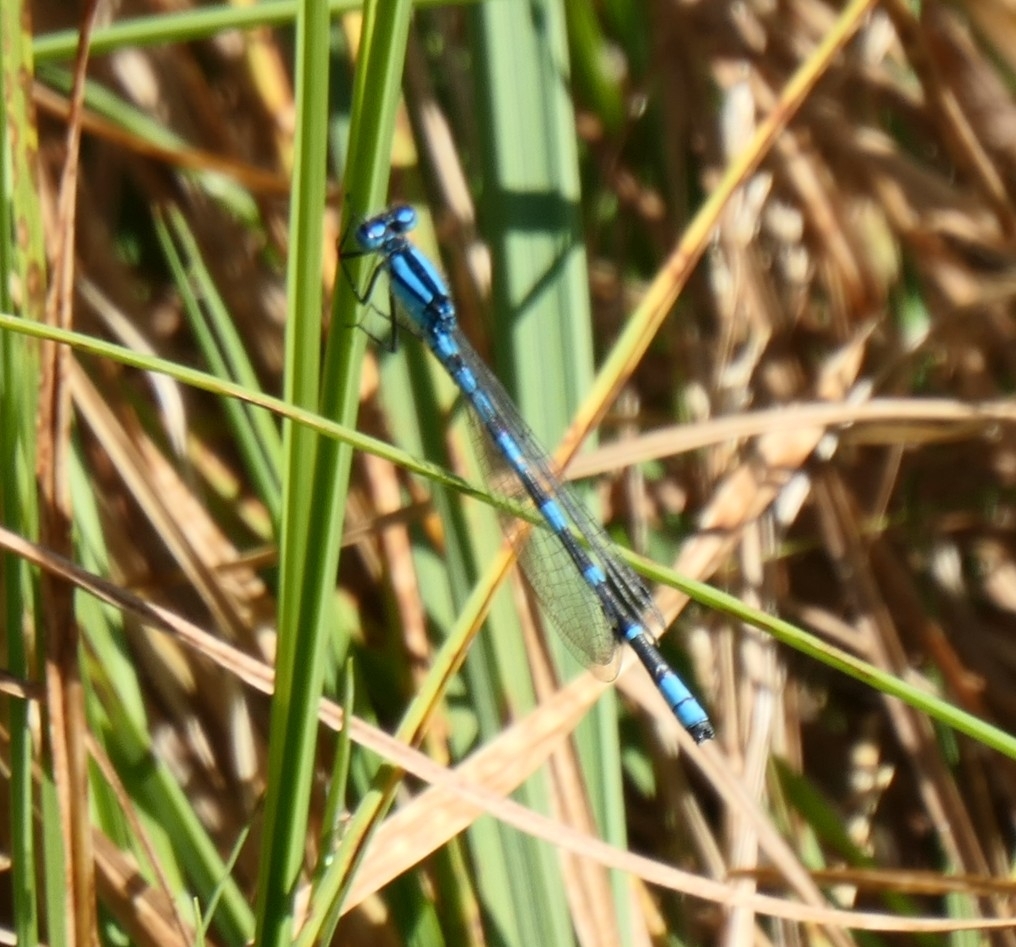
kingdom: Animalia
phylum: Arthropoda
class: Insecta
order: Odonata
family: Coenagrionidae
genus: Enallagma
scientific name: Enallagma cyathigerum
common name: Common blue damselfly
